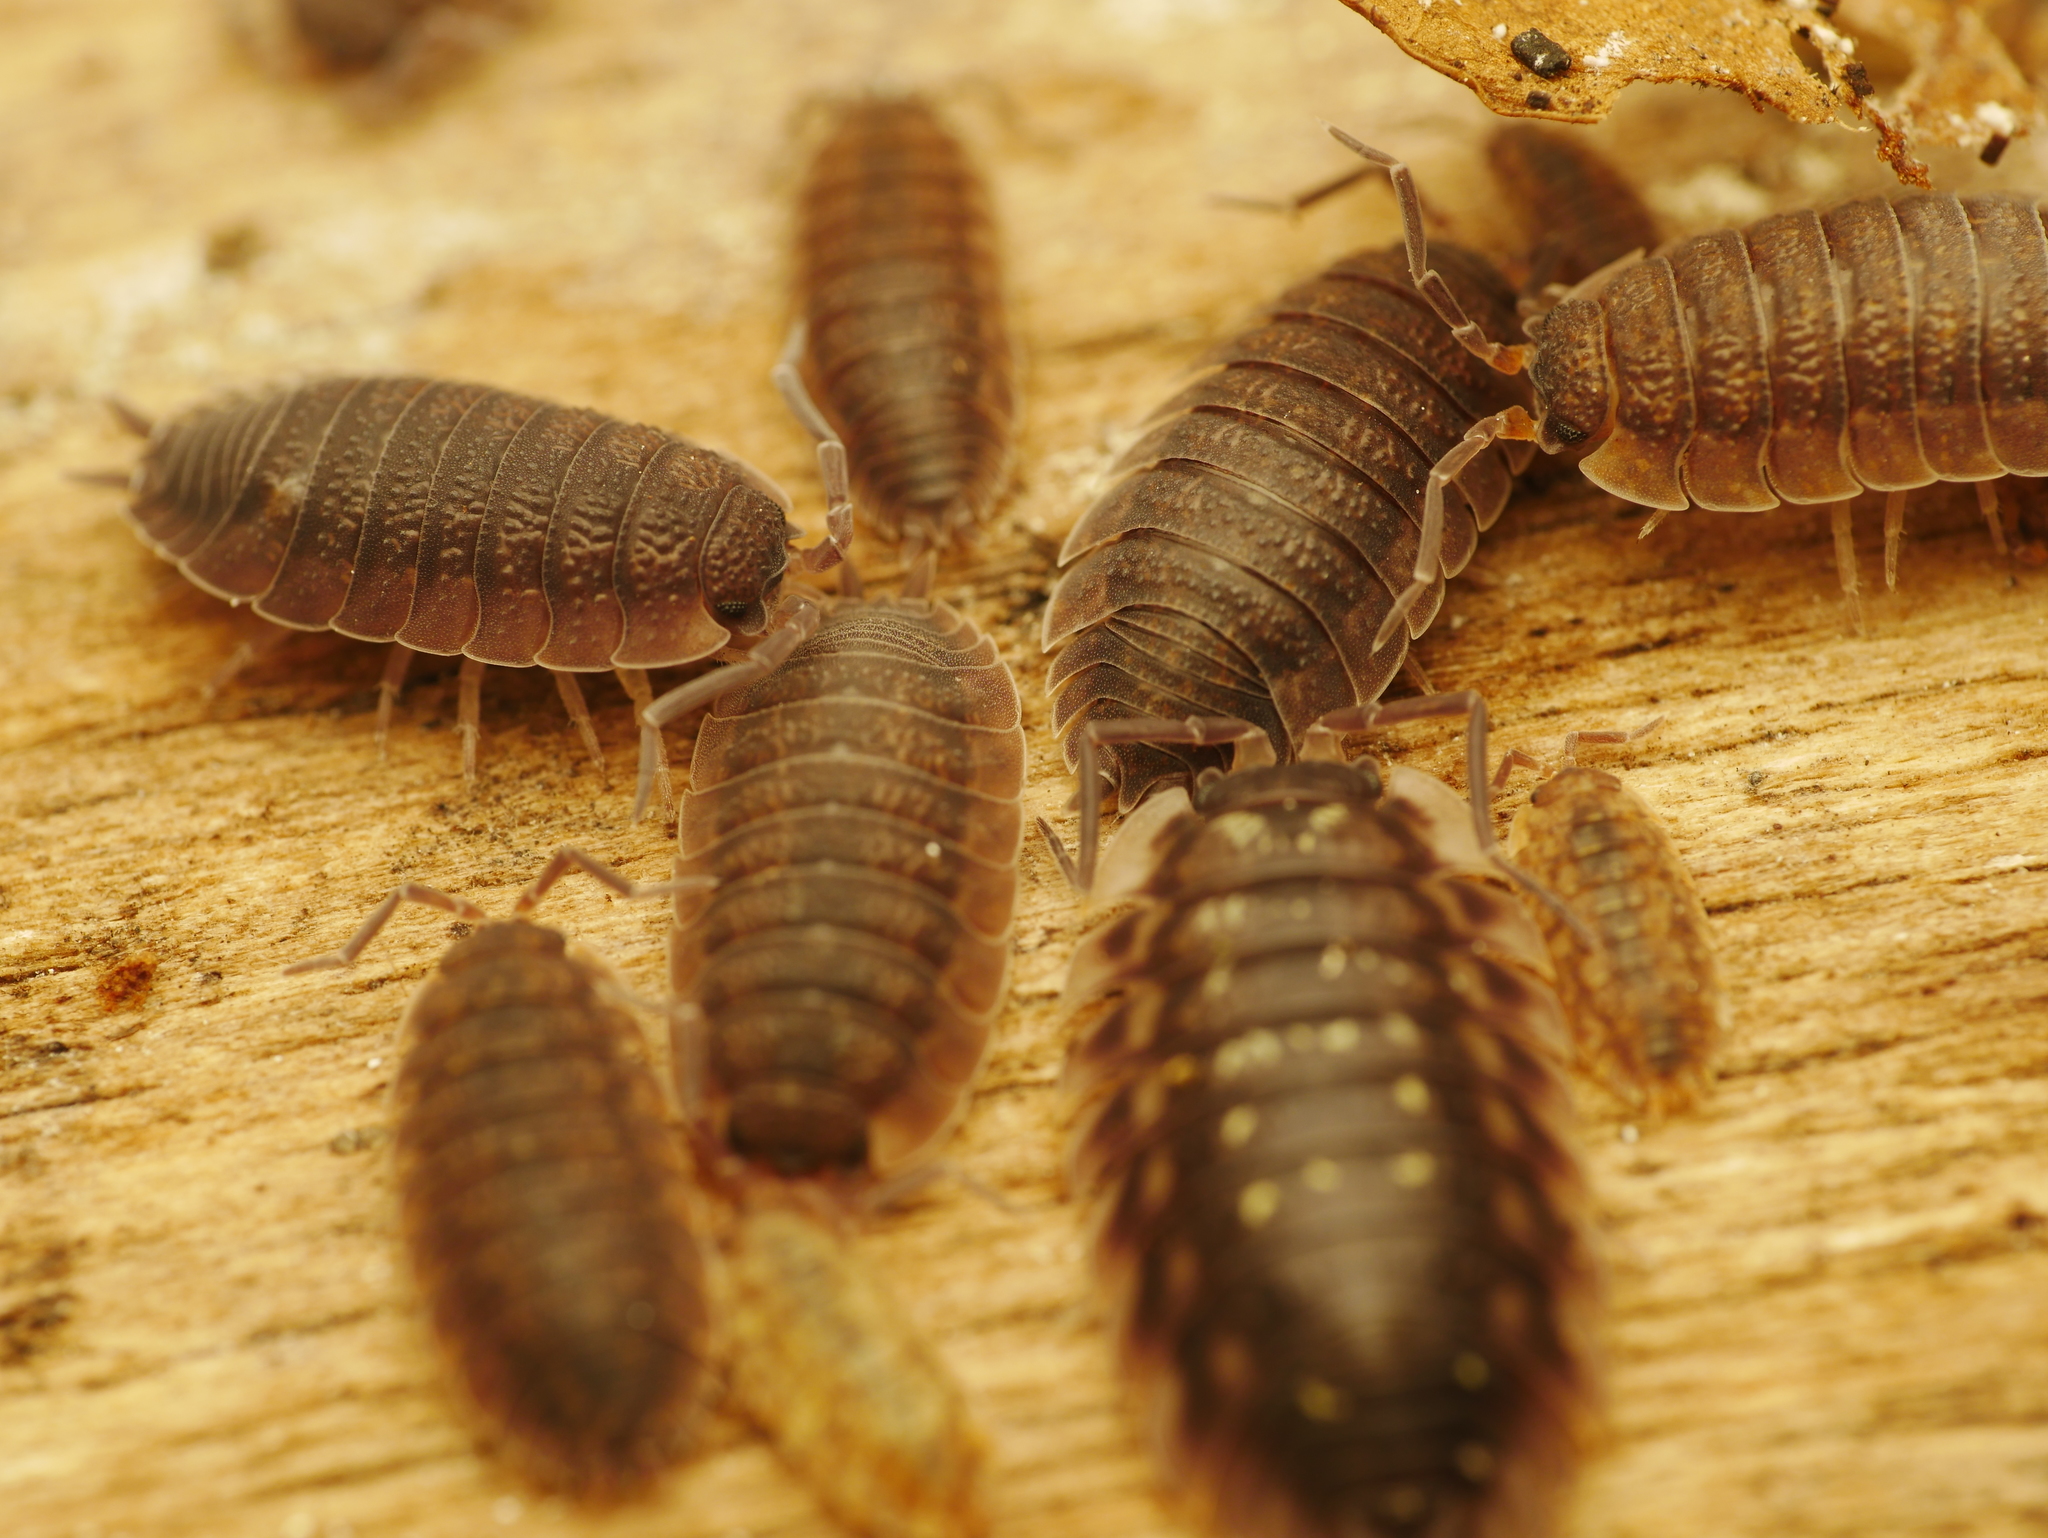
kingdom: Animalia
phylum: Arthropoda
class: Malacostraca
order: Isopoda
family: Oniscidae
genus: Oniscus
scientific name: Oniscus asellus
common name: Common shiny woodlouse
